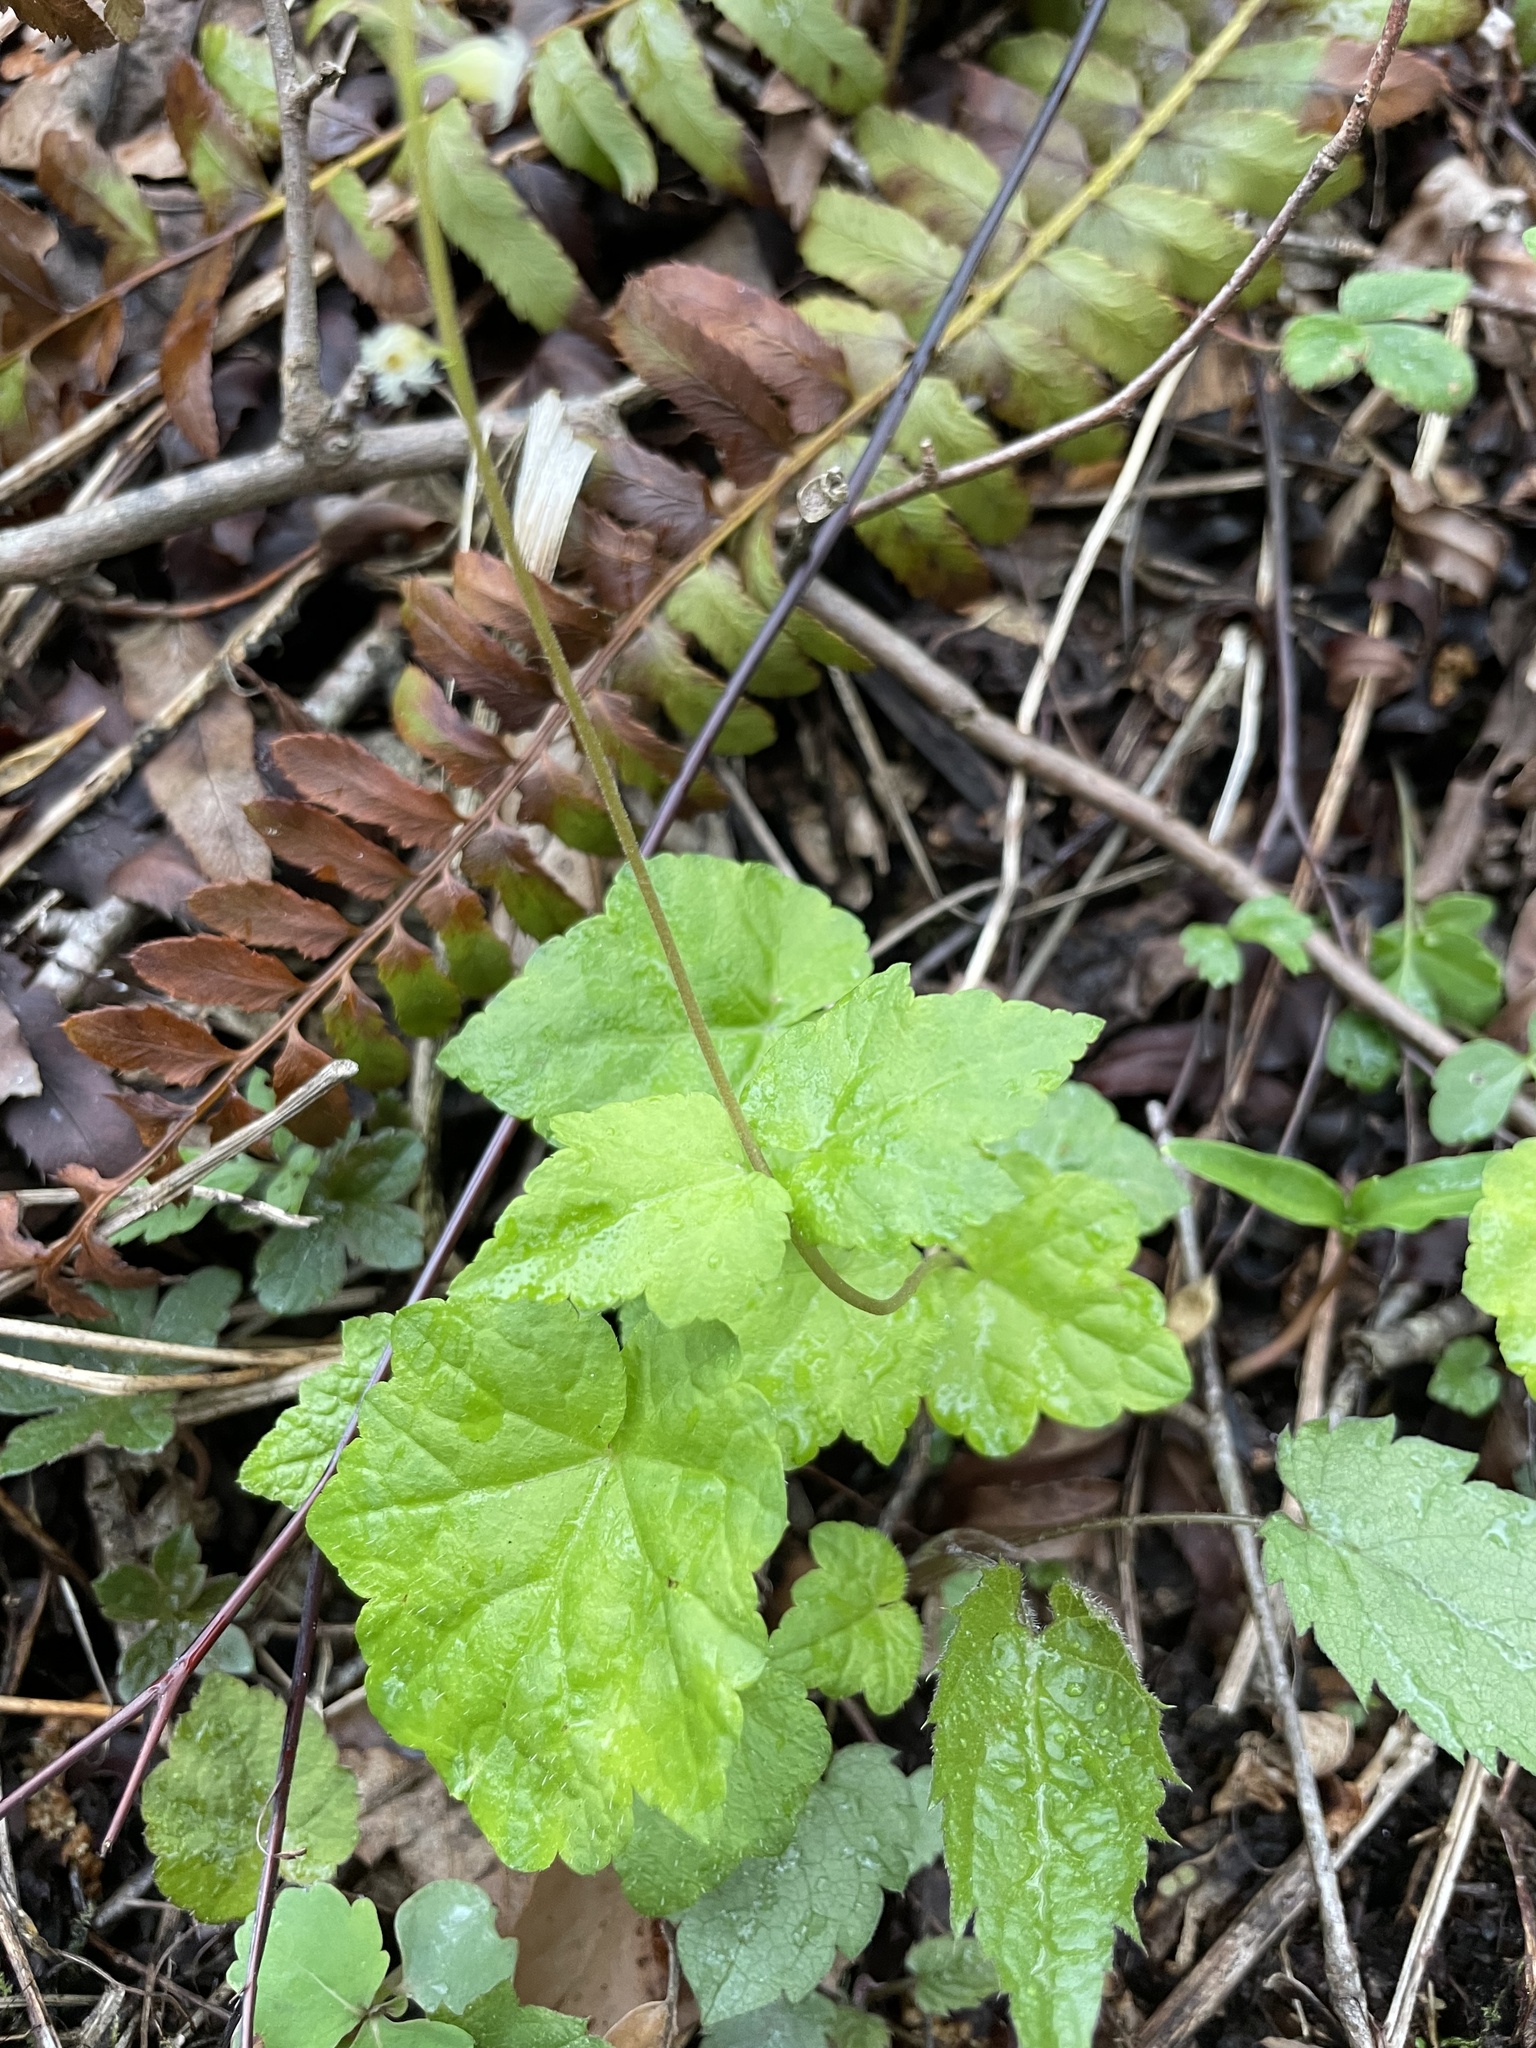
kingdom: Plantae
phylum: Tracheophyta
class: Magnoliopsida
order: Saxifragales
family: Saxifragaceae
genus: Mitella
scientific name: Mitella diphylla
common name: Coolwort
